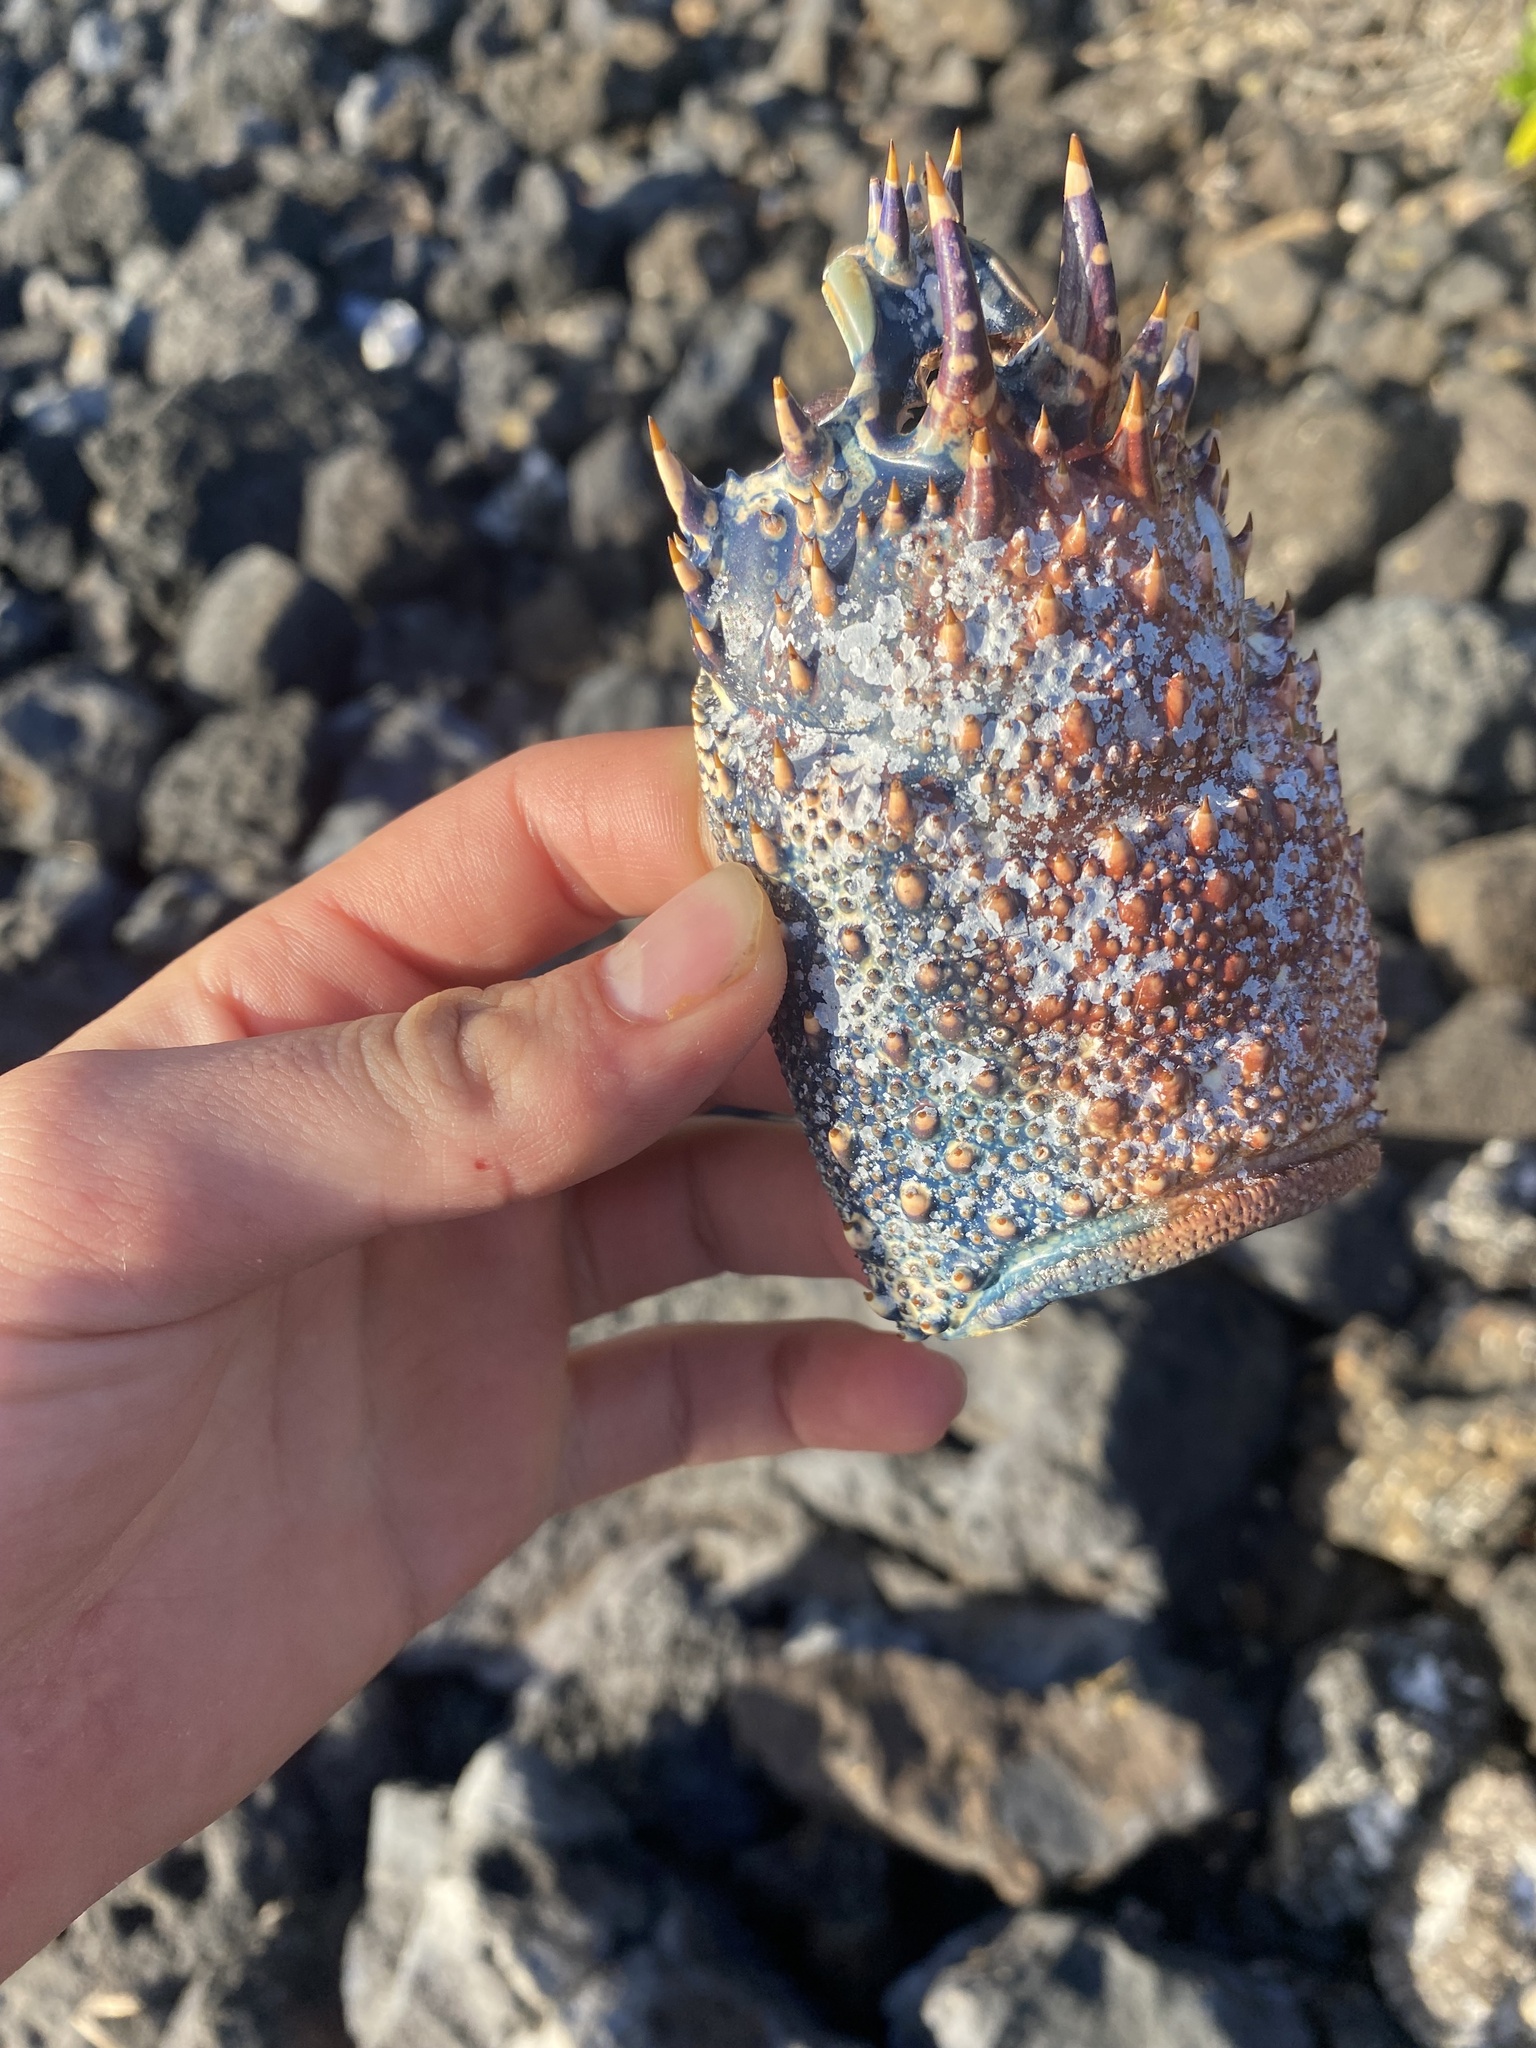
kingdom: Animalia
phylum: Arthropoda
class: Malacostraca
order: Decapoda
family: Palinuridae
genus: Panulirus
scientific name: Panulirus penicillatus
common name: Pronghorn spiny lobster
